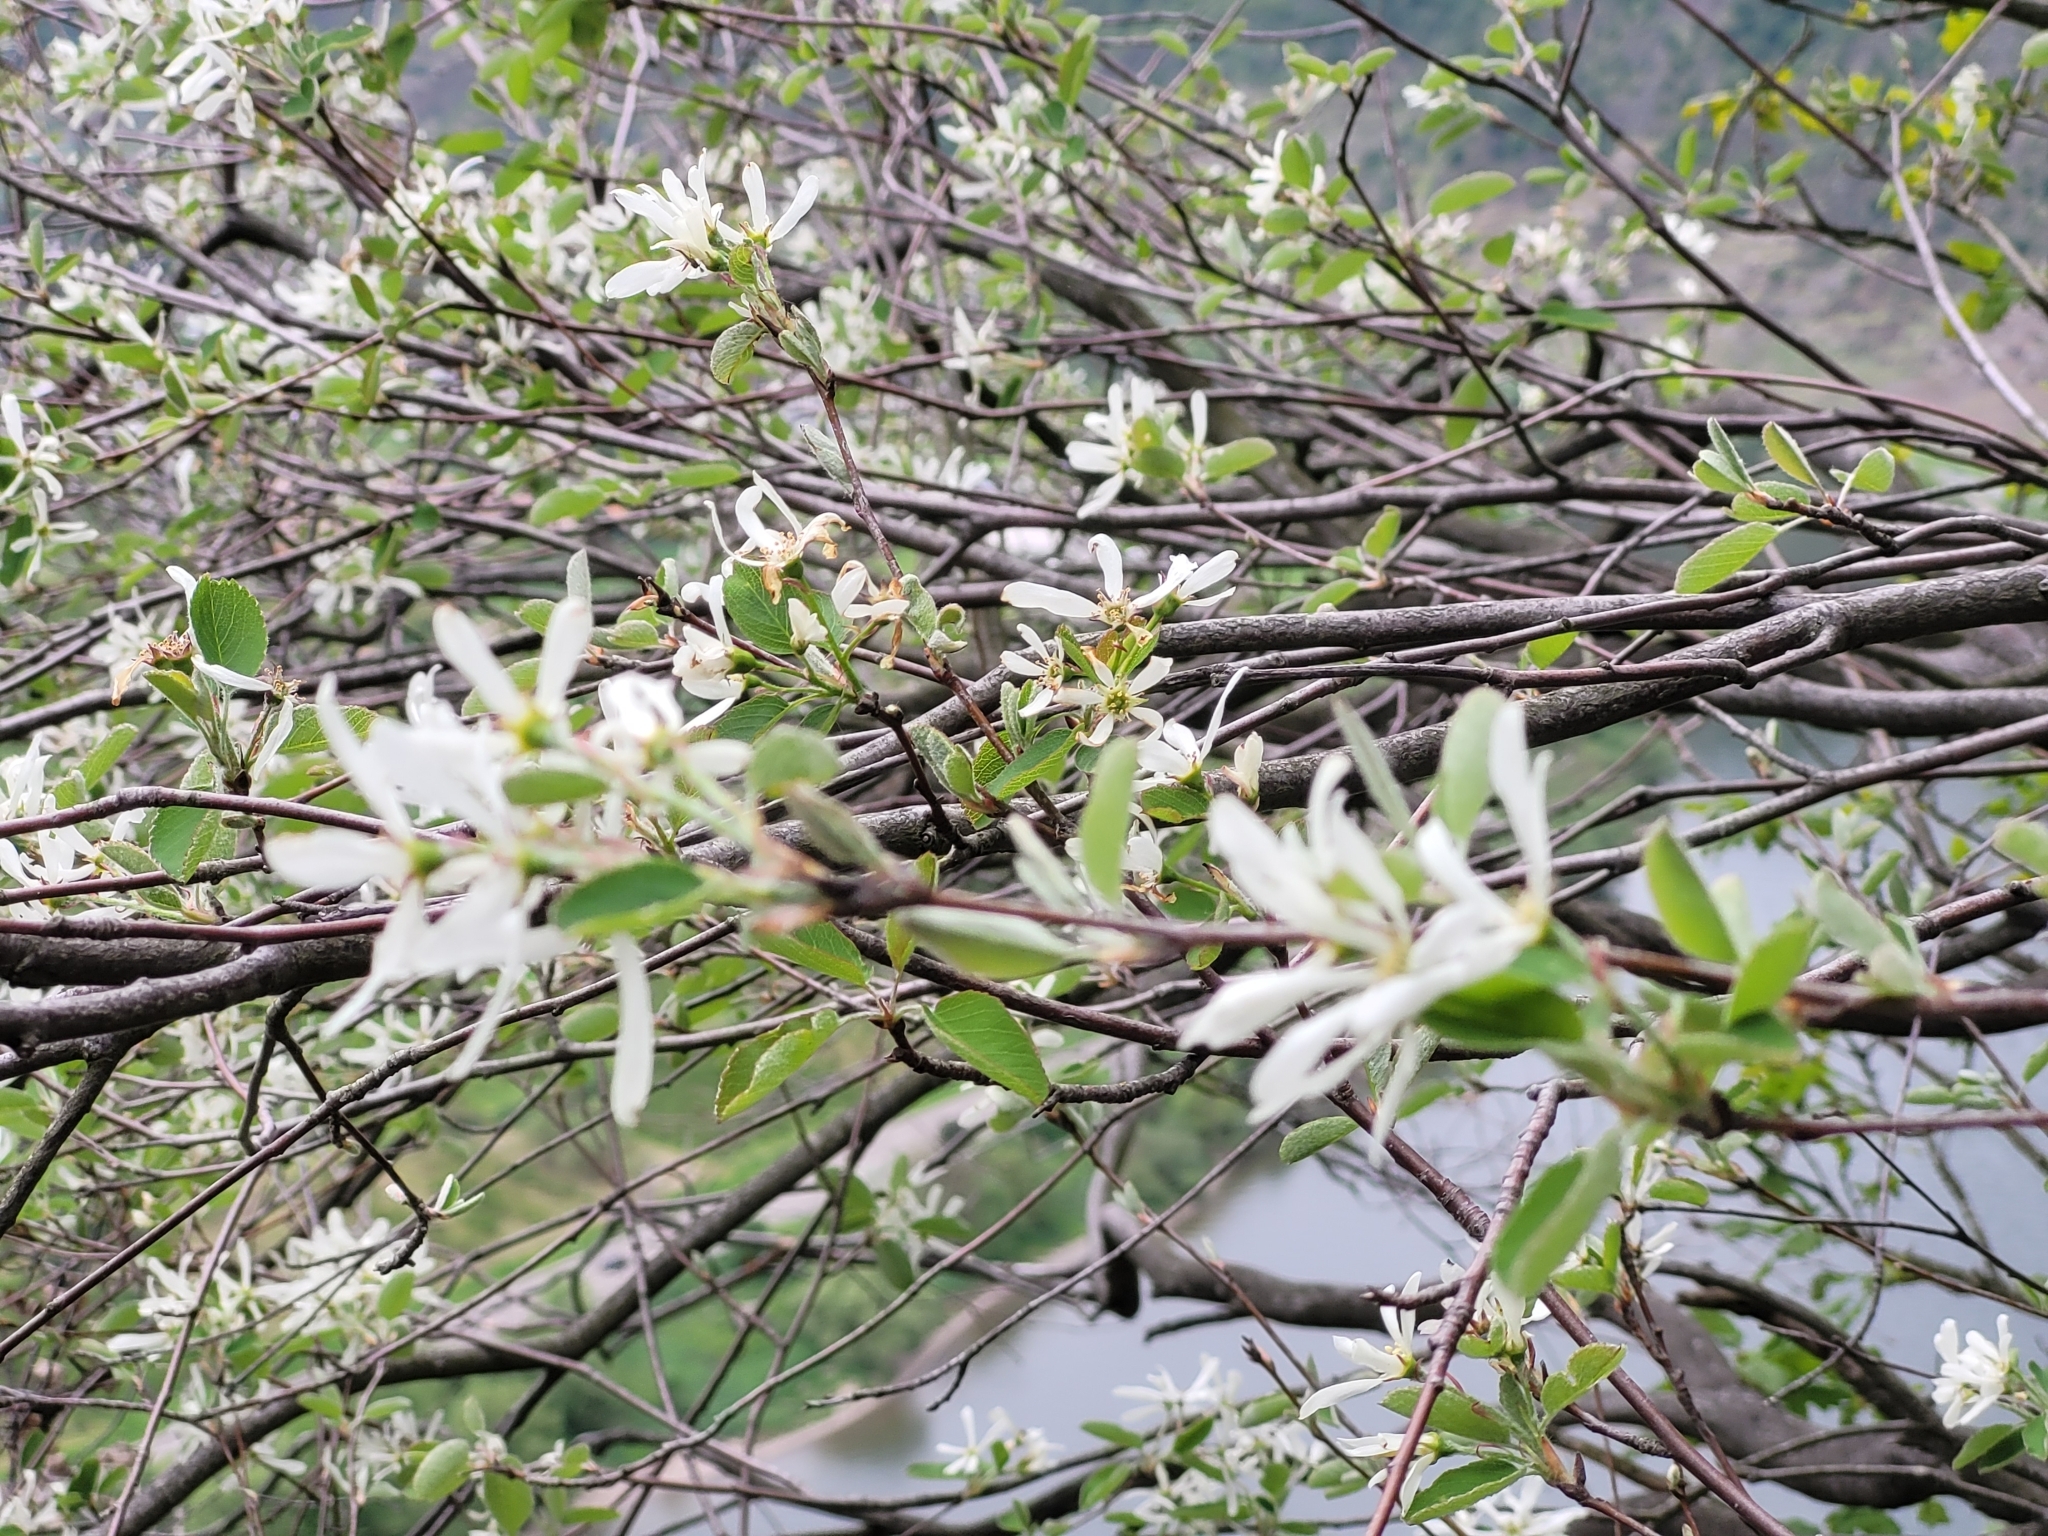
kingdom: Plantae
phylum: Tracheophyta
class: Magnoliopsida
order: Rosales
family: Rosaceae
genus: Amelanchier
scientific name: Amelanchier ovalis
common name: Serviceberry
